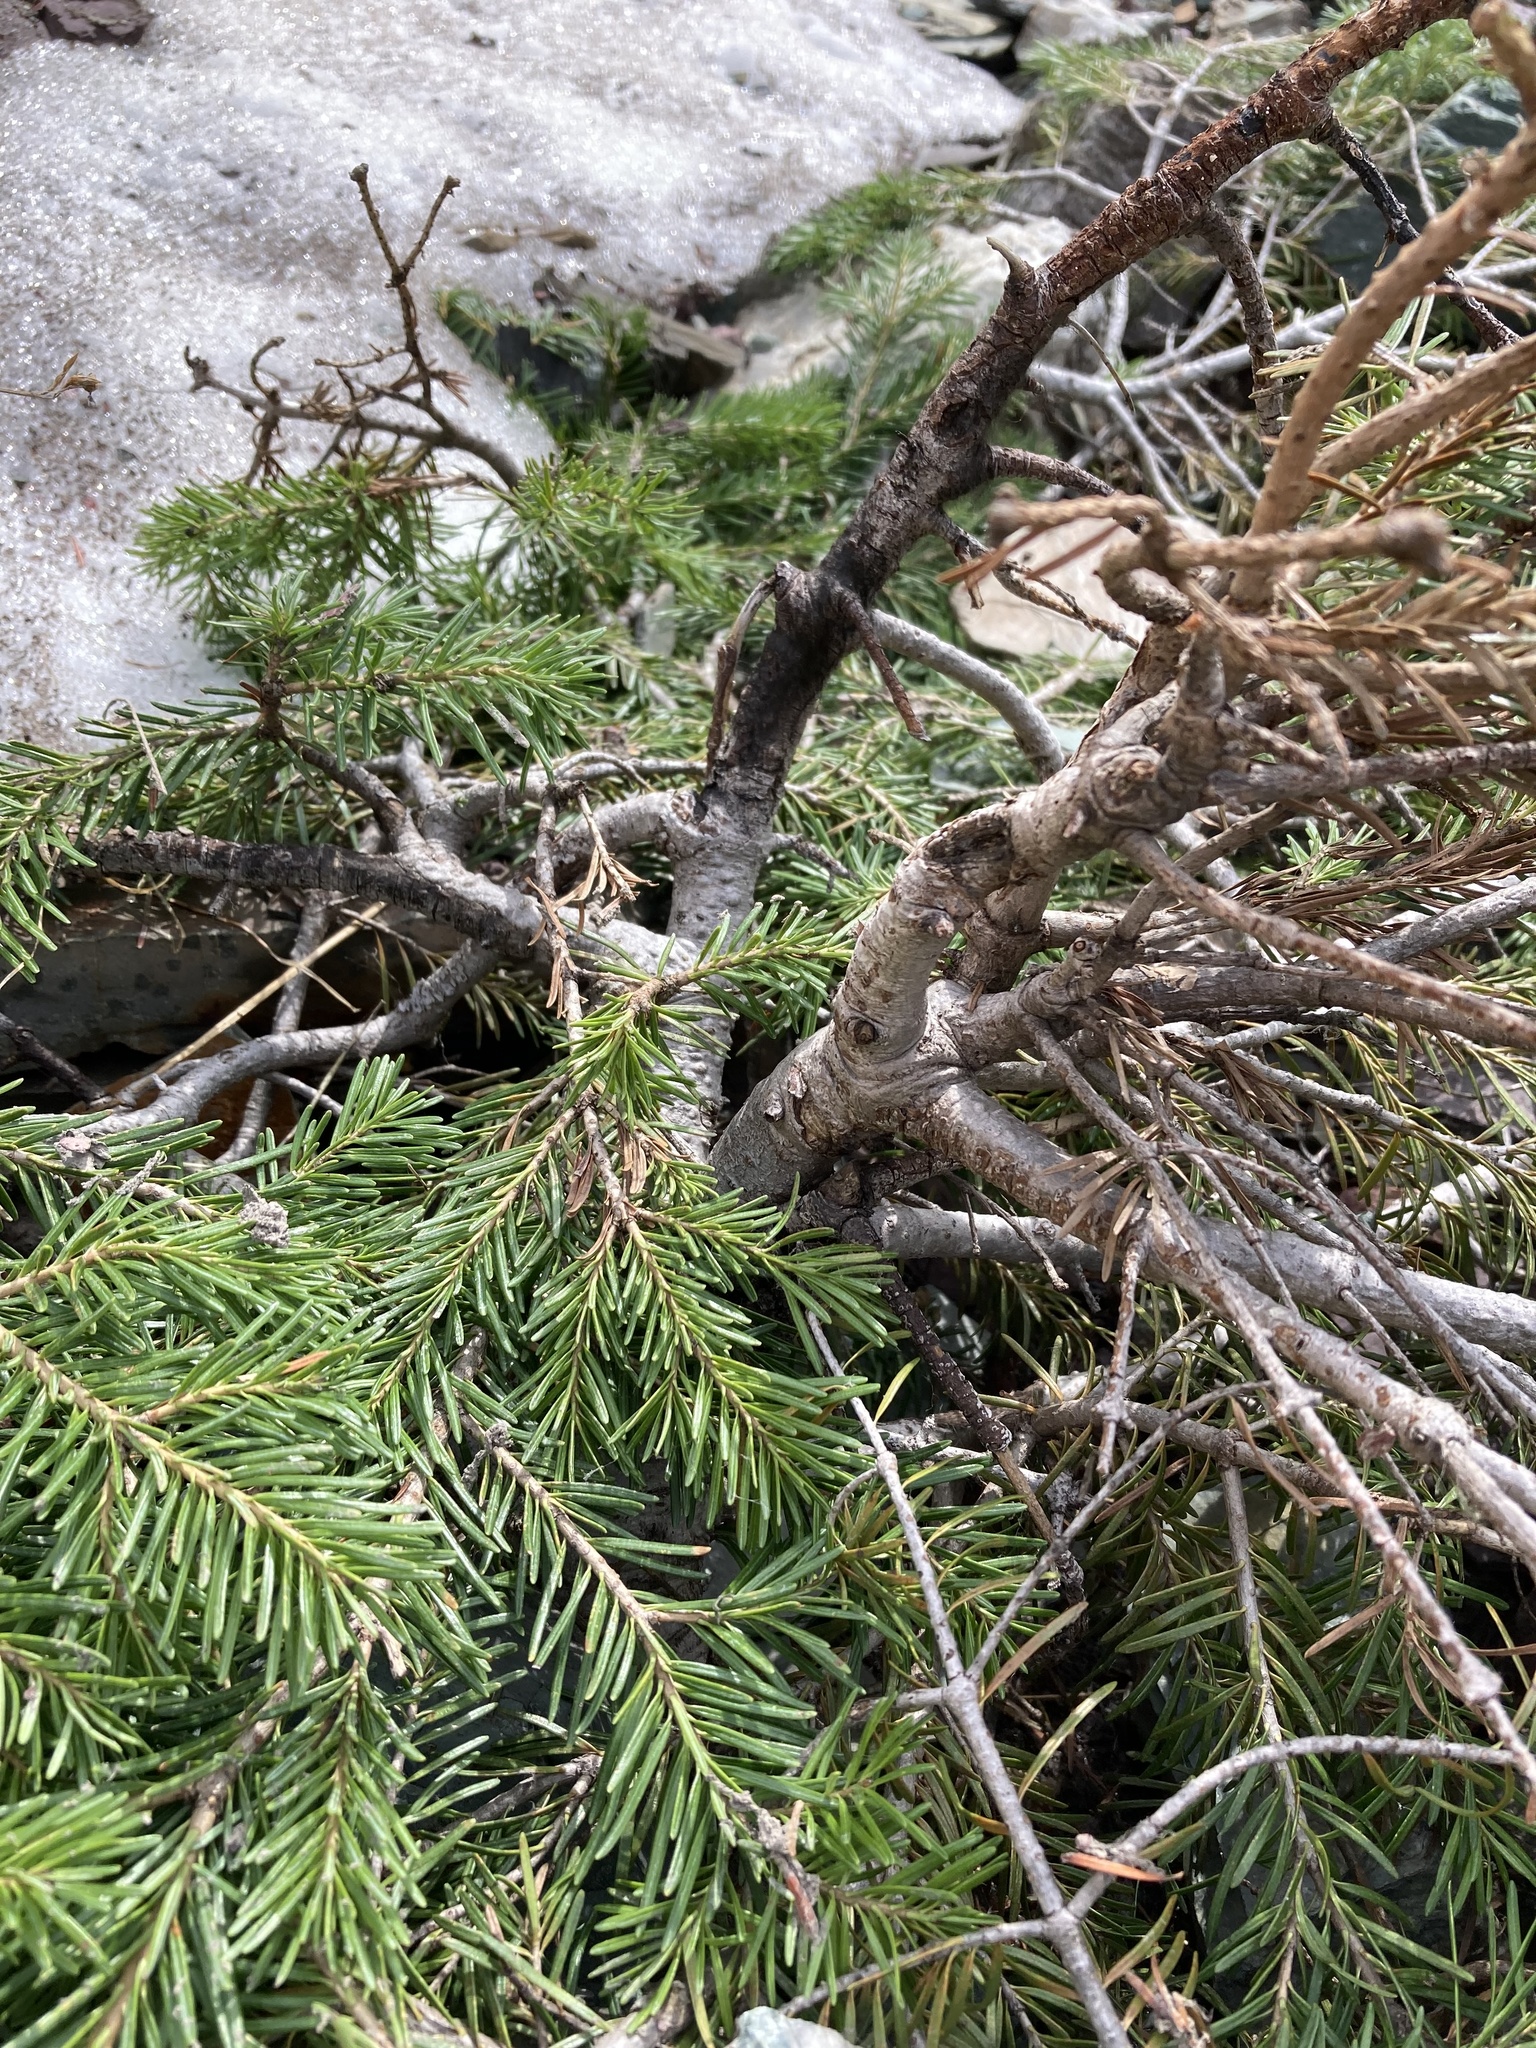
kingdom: Plantae
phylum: Tracheophyta
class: Pinopsida
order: Pinales
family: Pinaceae
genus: Abies
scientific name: Abies lasiocarpa
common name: Subalpine fir
